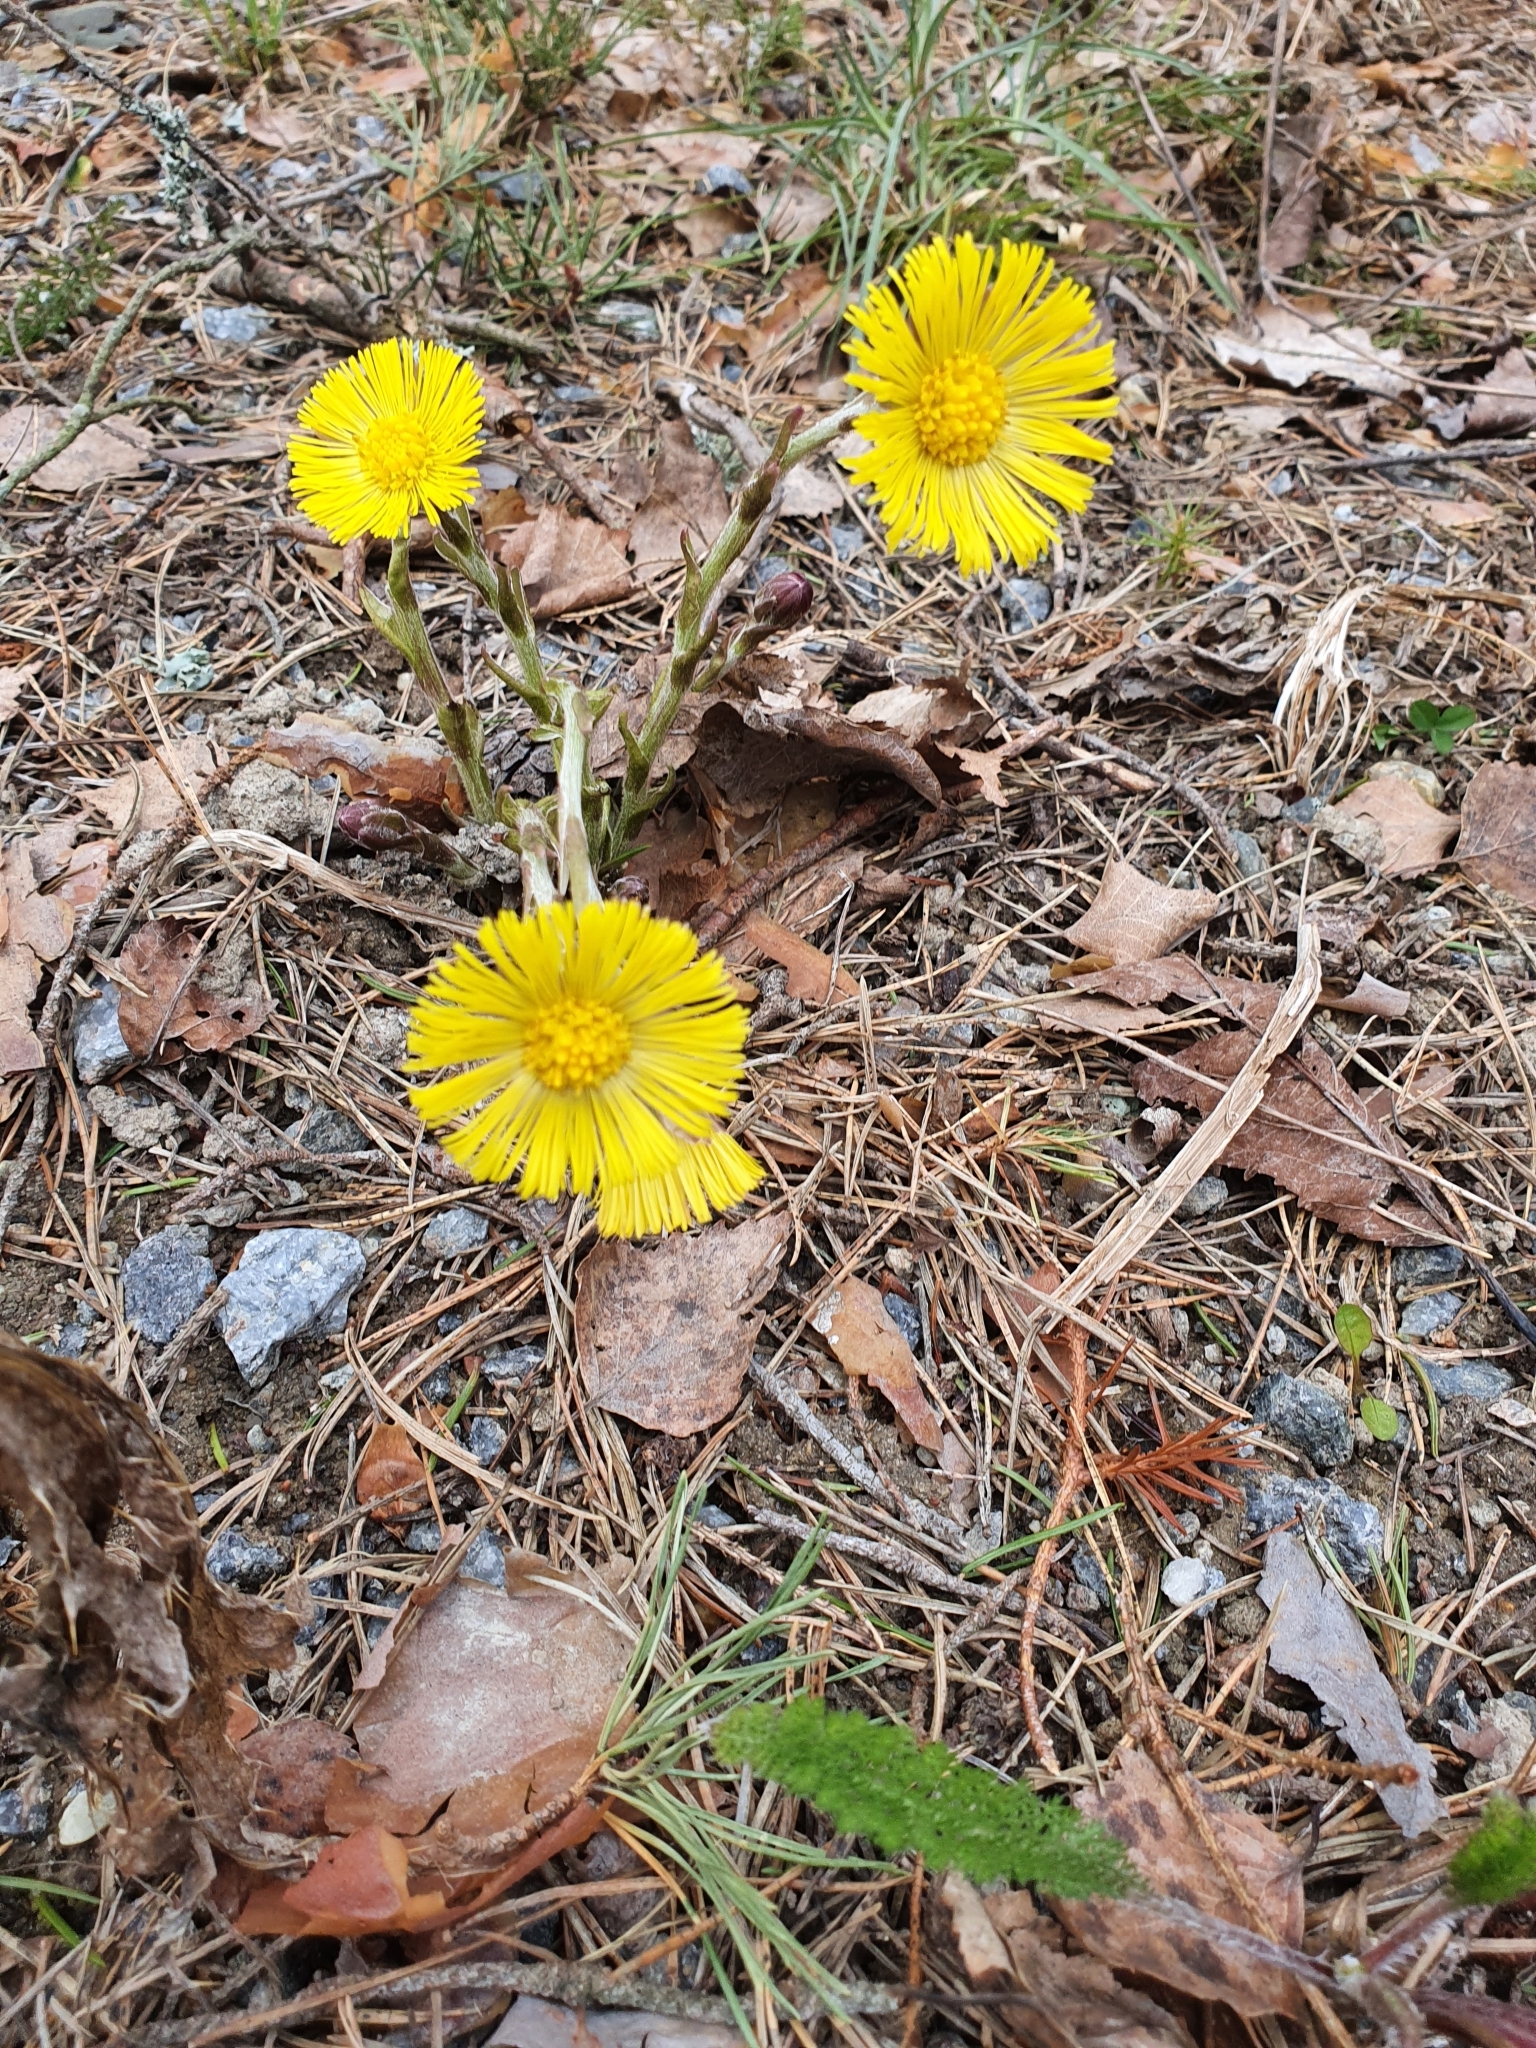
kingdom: Plantae
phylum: Tracheophyta
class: Magnoliopsida
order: Asterales
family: Asteraceae
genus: Tussilago
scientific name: Tussilago farfara
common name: Coltsfoot
